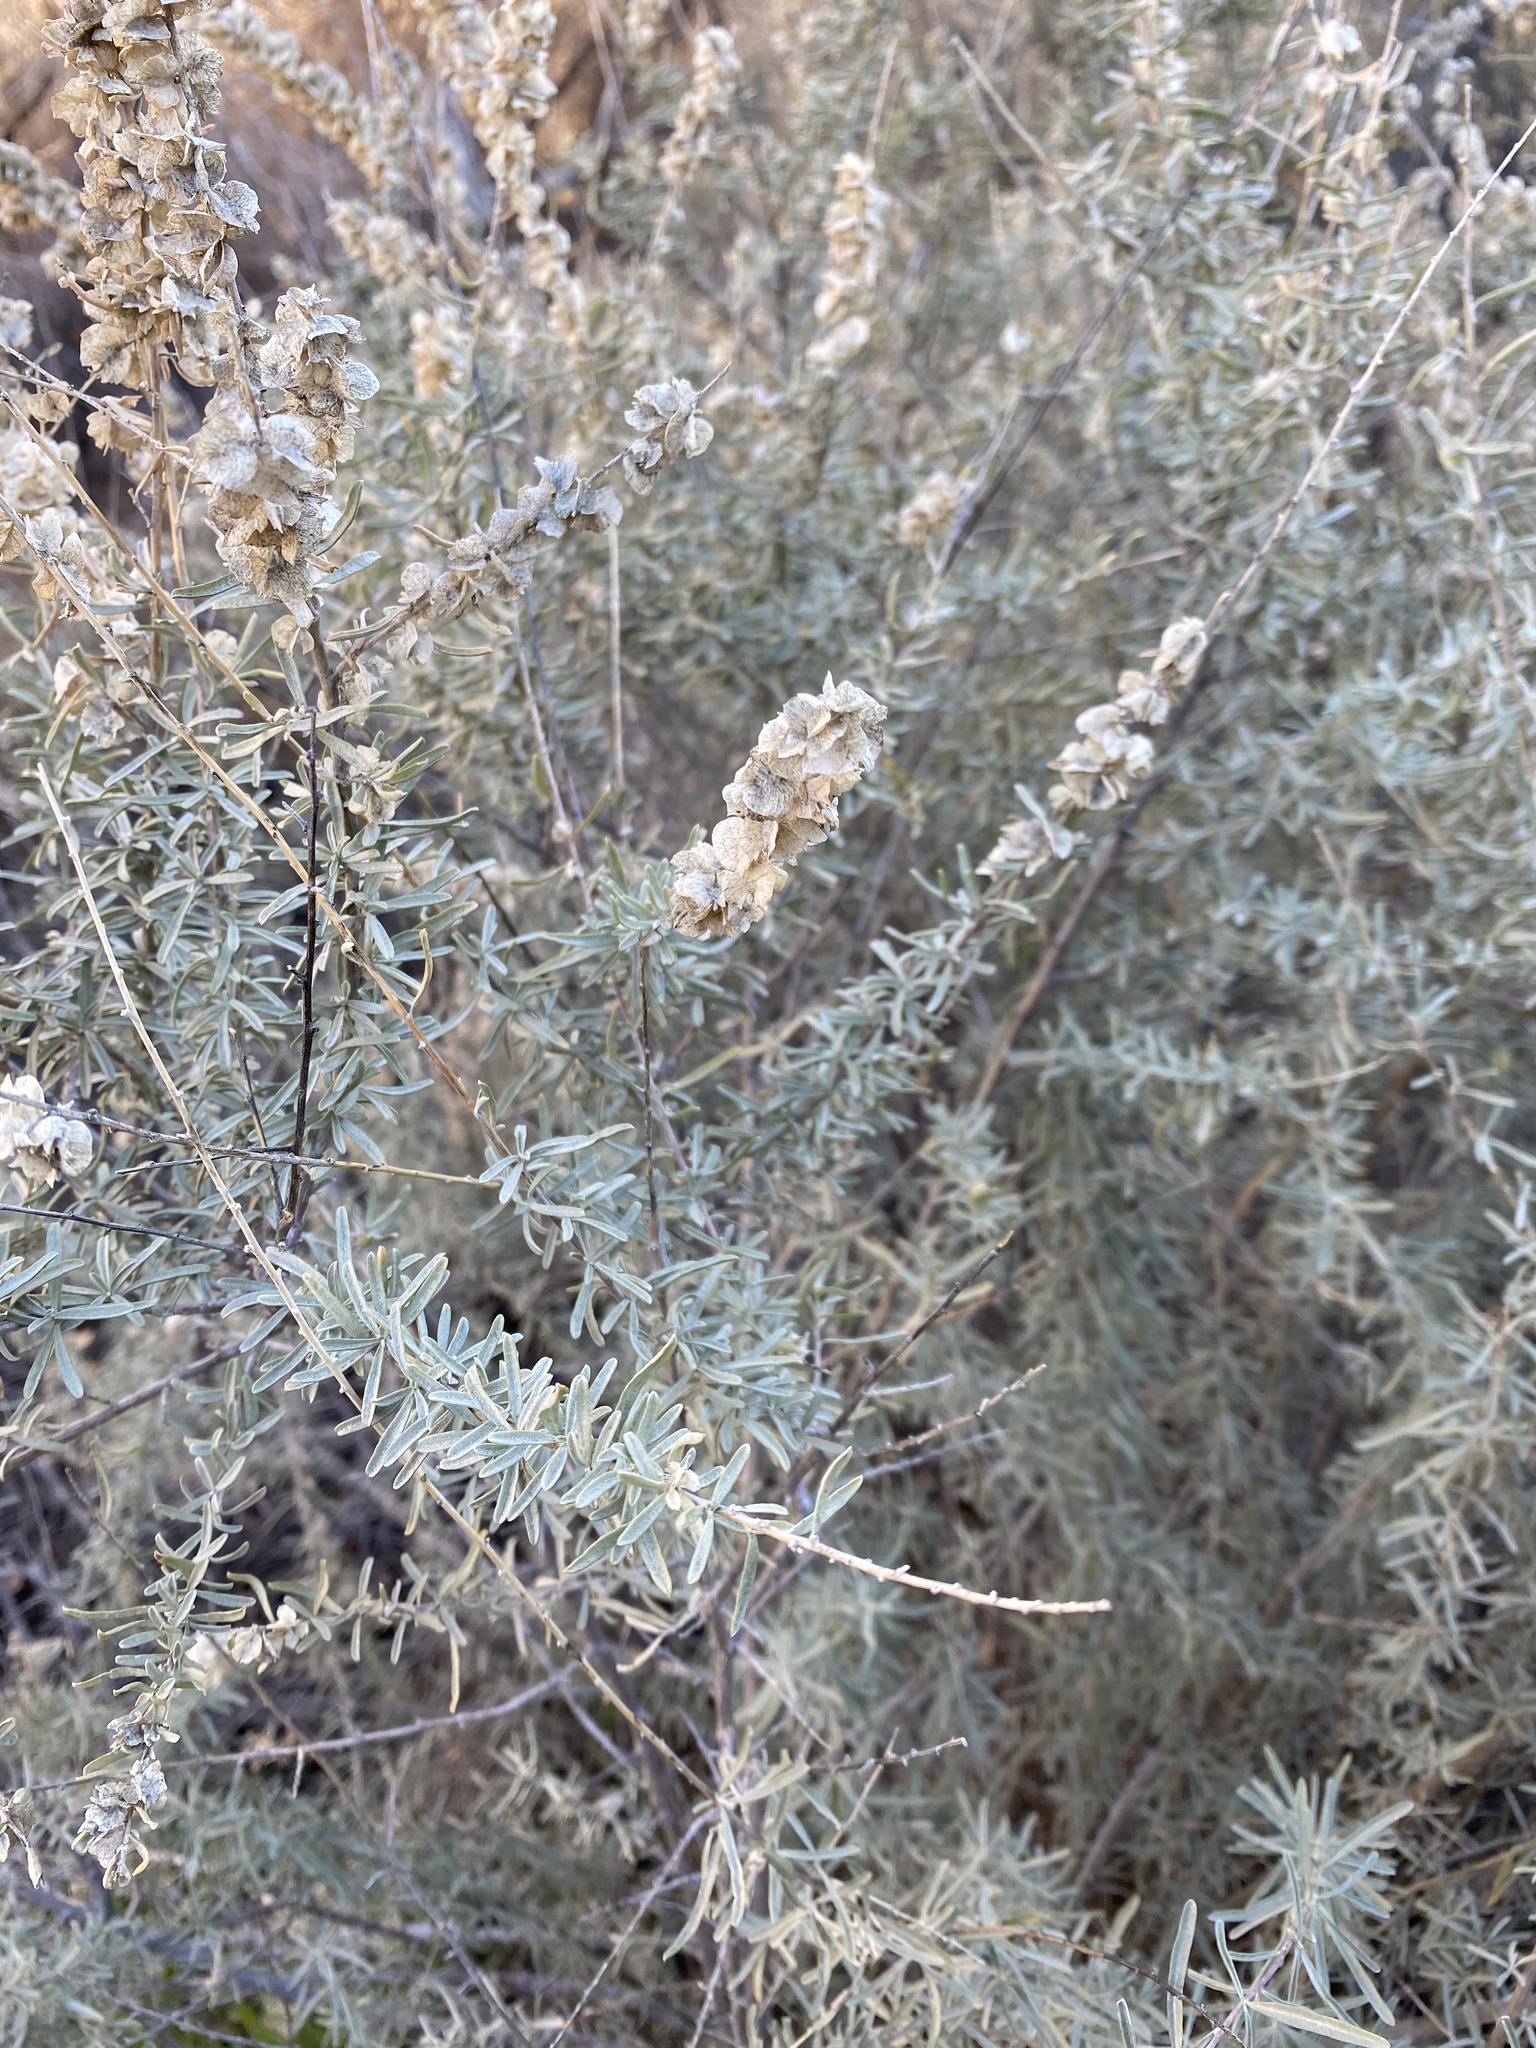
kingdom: Plantae
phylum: Tracheophyta
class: Magnoliopsida
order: Caryophyllales
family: Amaranthaceae
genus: Atriplex
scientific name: Atriplex canescens
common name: Four-wing saltbush
